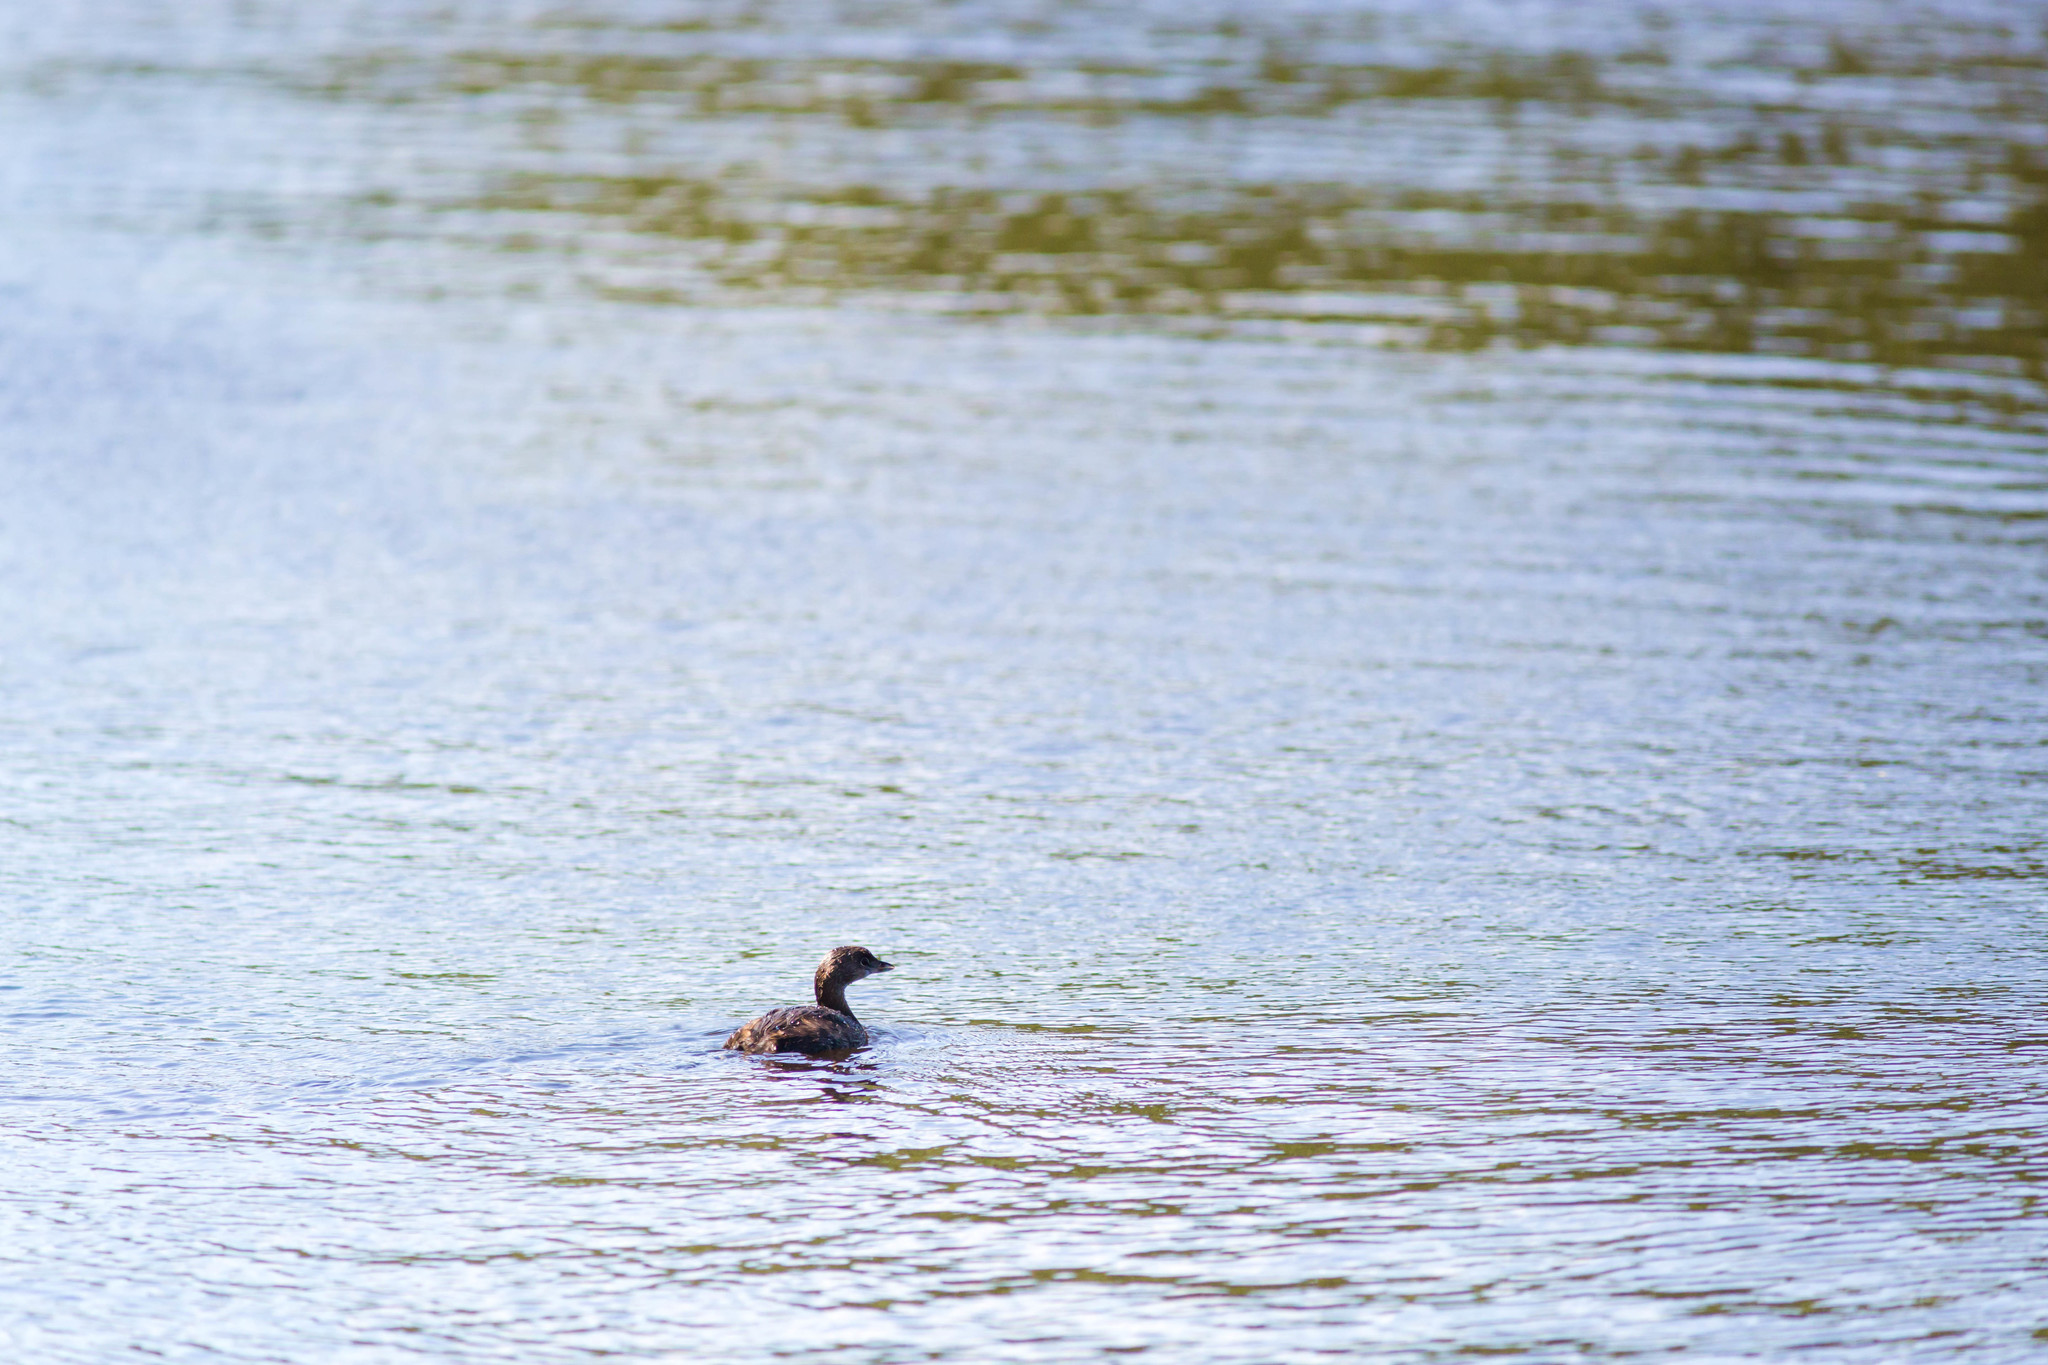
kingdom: Animalia
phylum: Chordata
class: Aves
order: Podicipediformes
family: Podicipedidae
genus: Podilymbus
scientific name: Podilymbus podiceps
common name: Pied-billed grebe
